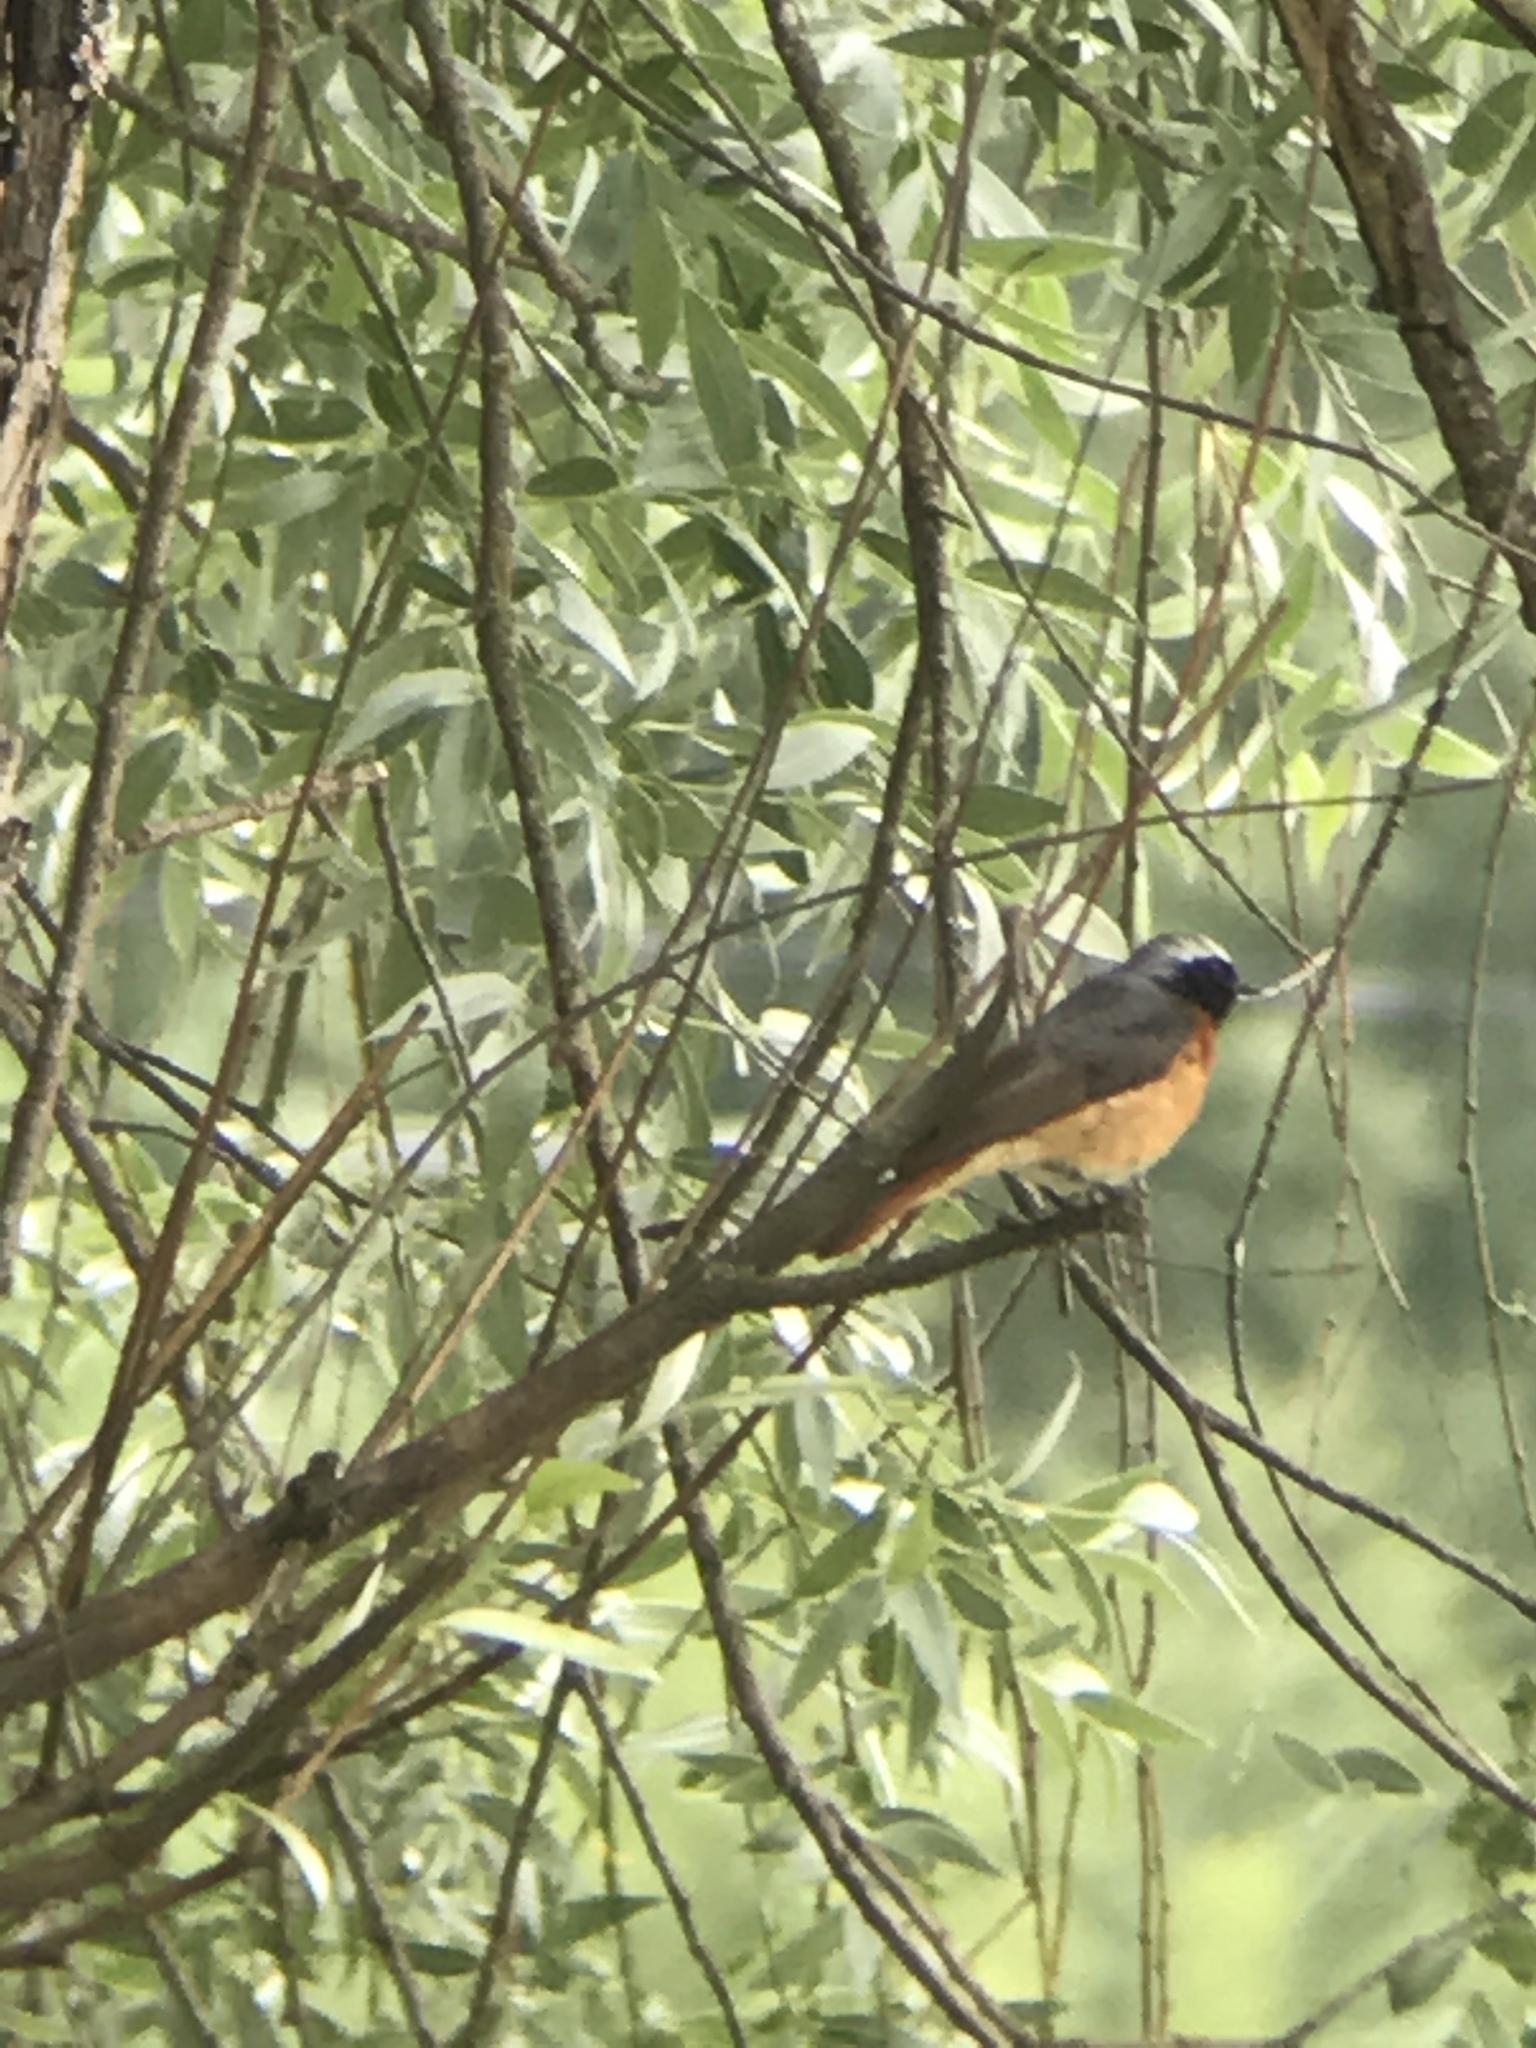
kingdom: Animalia
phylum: Chordata
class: Aves
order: Passeriformes
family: Muscicapidae
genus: Phoenicurus
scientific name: Phoenicurus phoenicurus
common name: Common redstart
